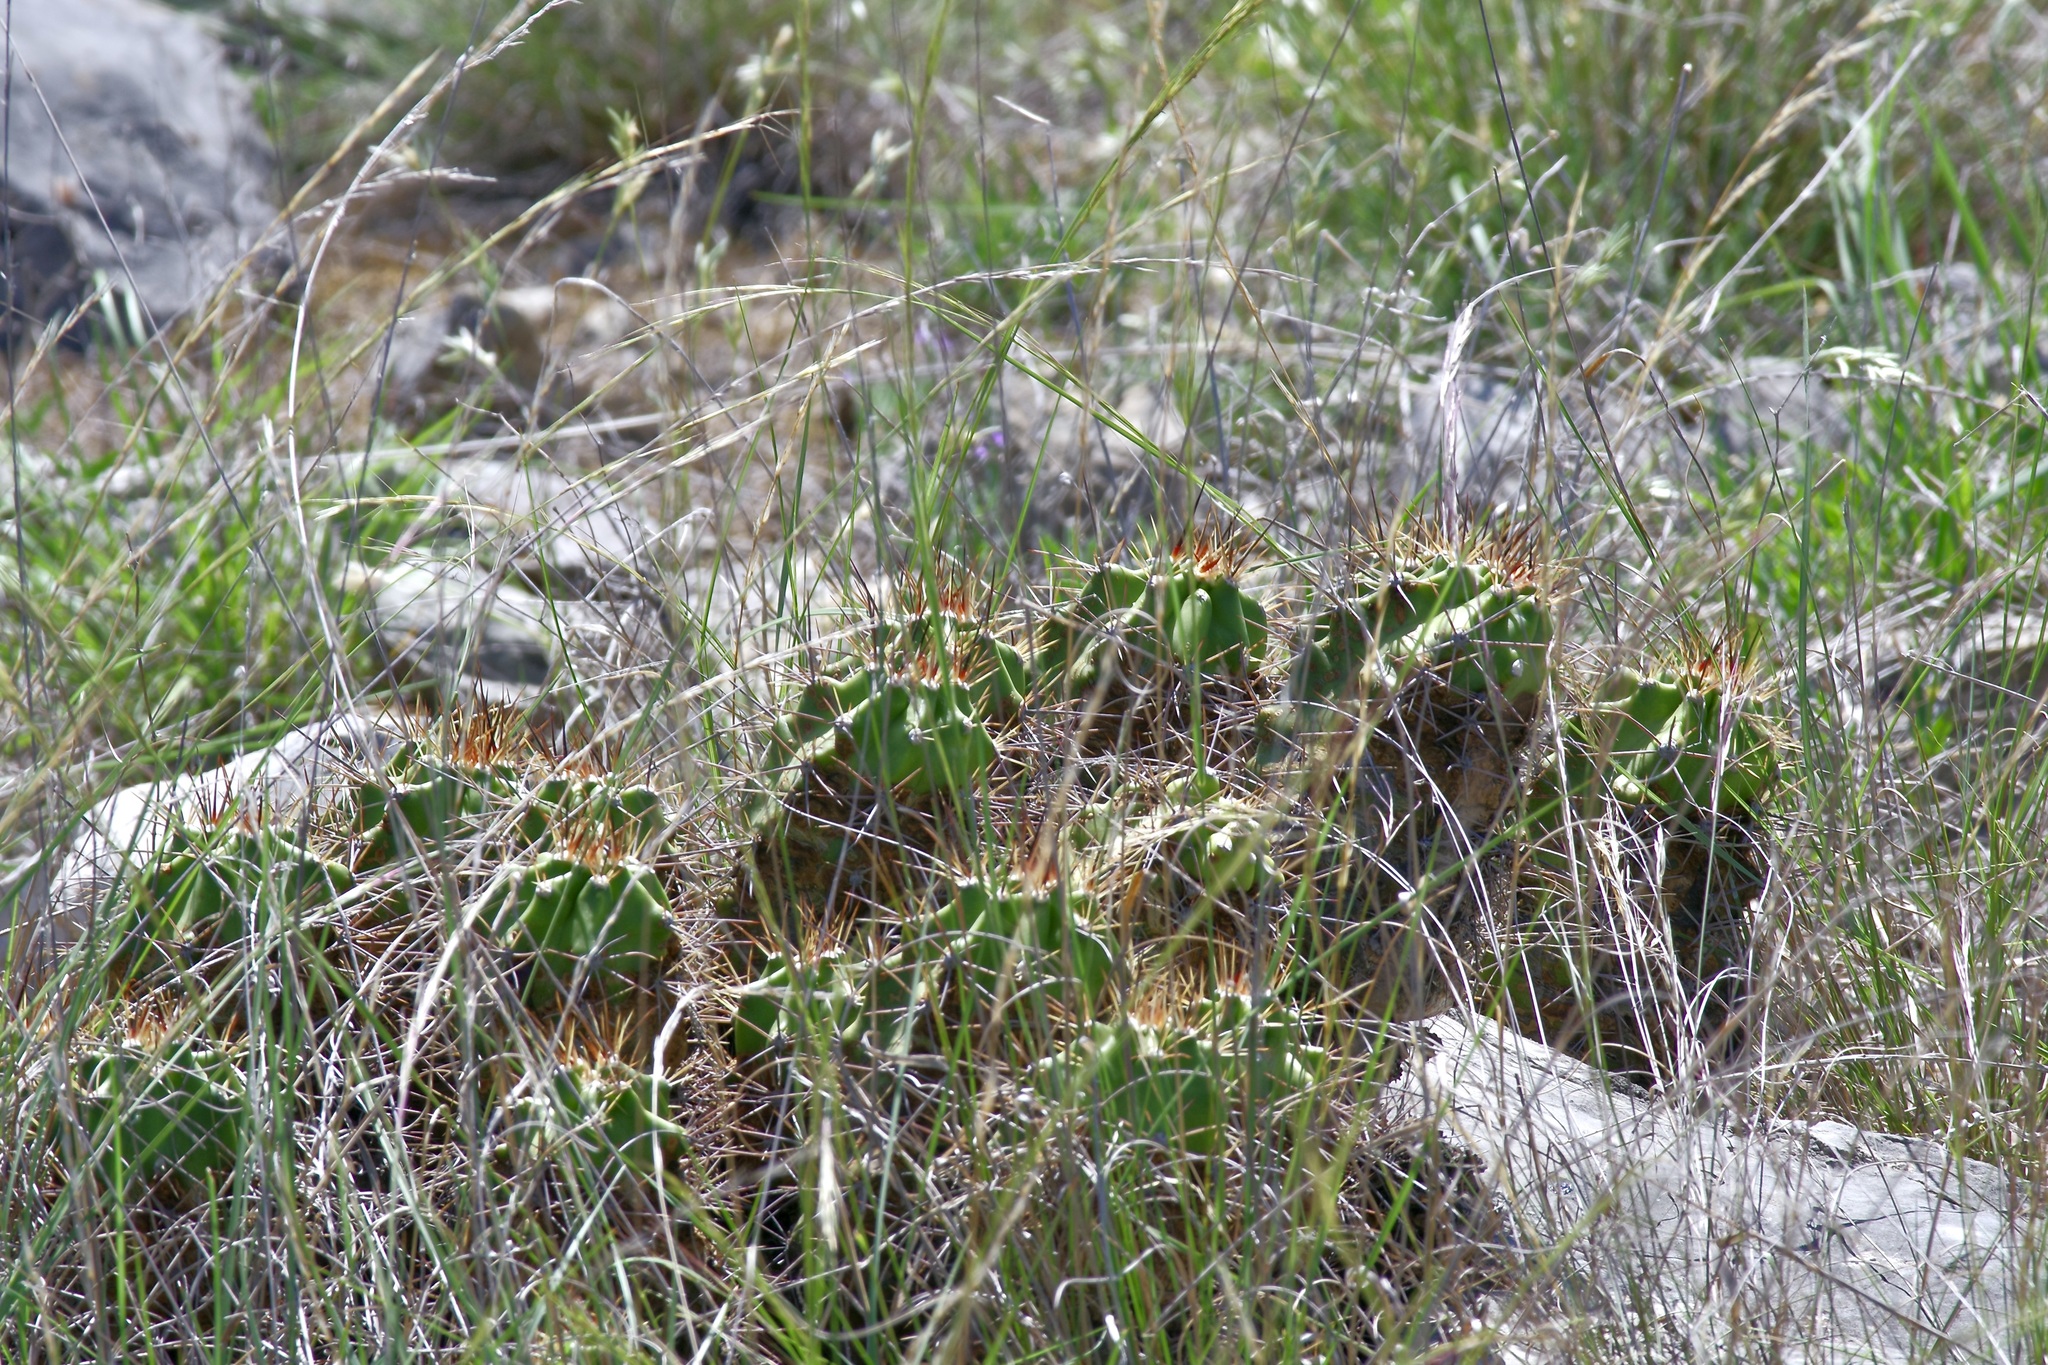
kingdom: Plantae
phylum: Tracheophyta
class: Magnoliopsida
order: Caryophyllales
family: Cactaceae
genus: Echinocereus
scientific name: Echinocereus coccineus
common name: Scarlet hedgehog cactus
